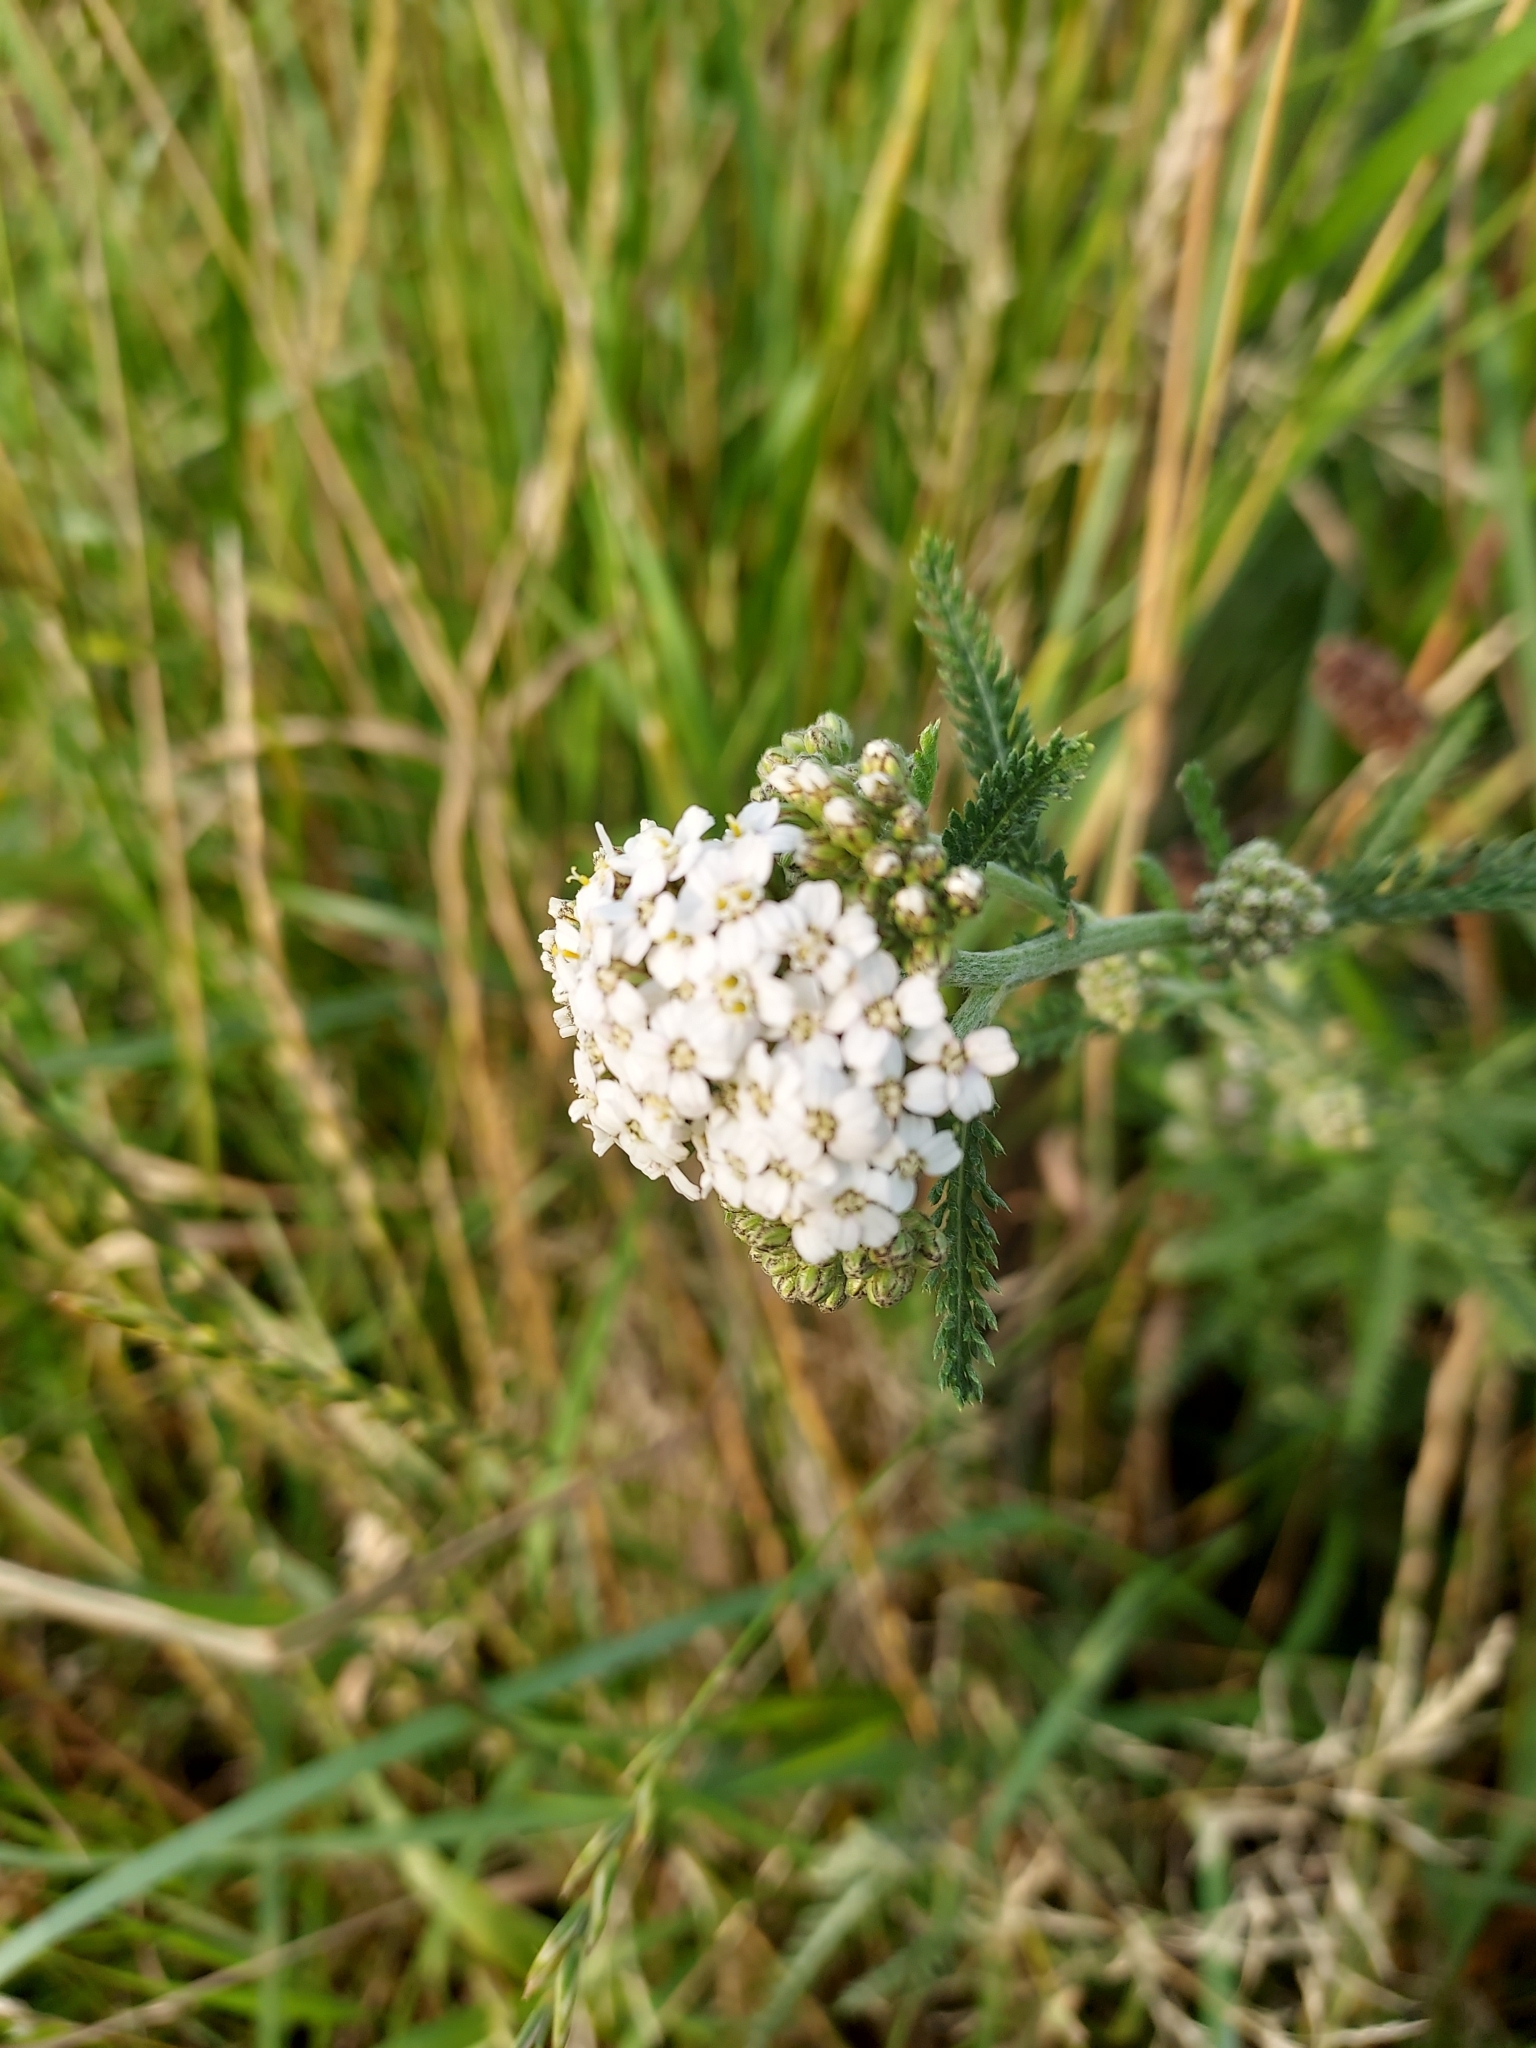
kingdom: Plantae
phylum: Tracheophyta
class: Magnoliopsida
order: Asterales
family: Asteraceae
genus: Achillea
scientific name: Achillea millefolium
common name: Yarrow
